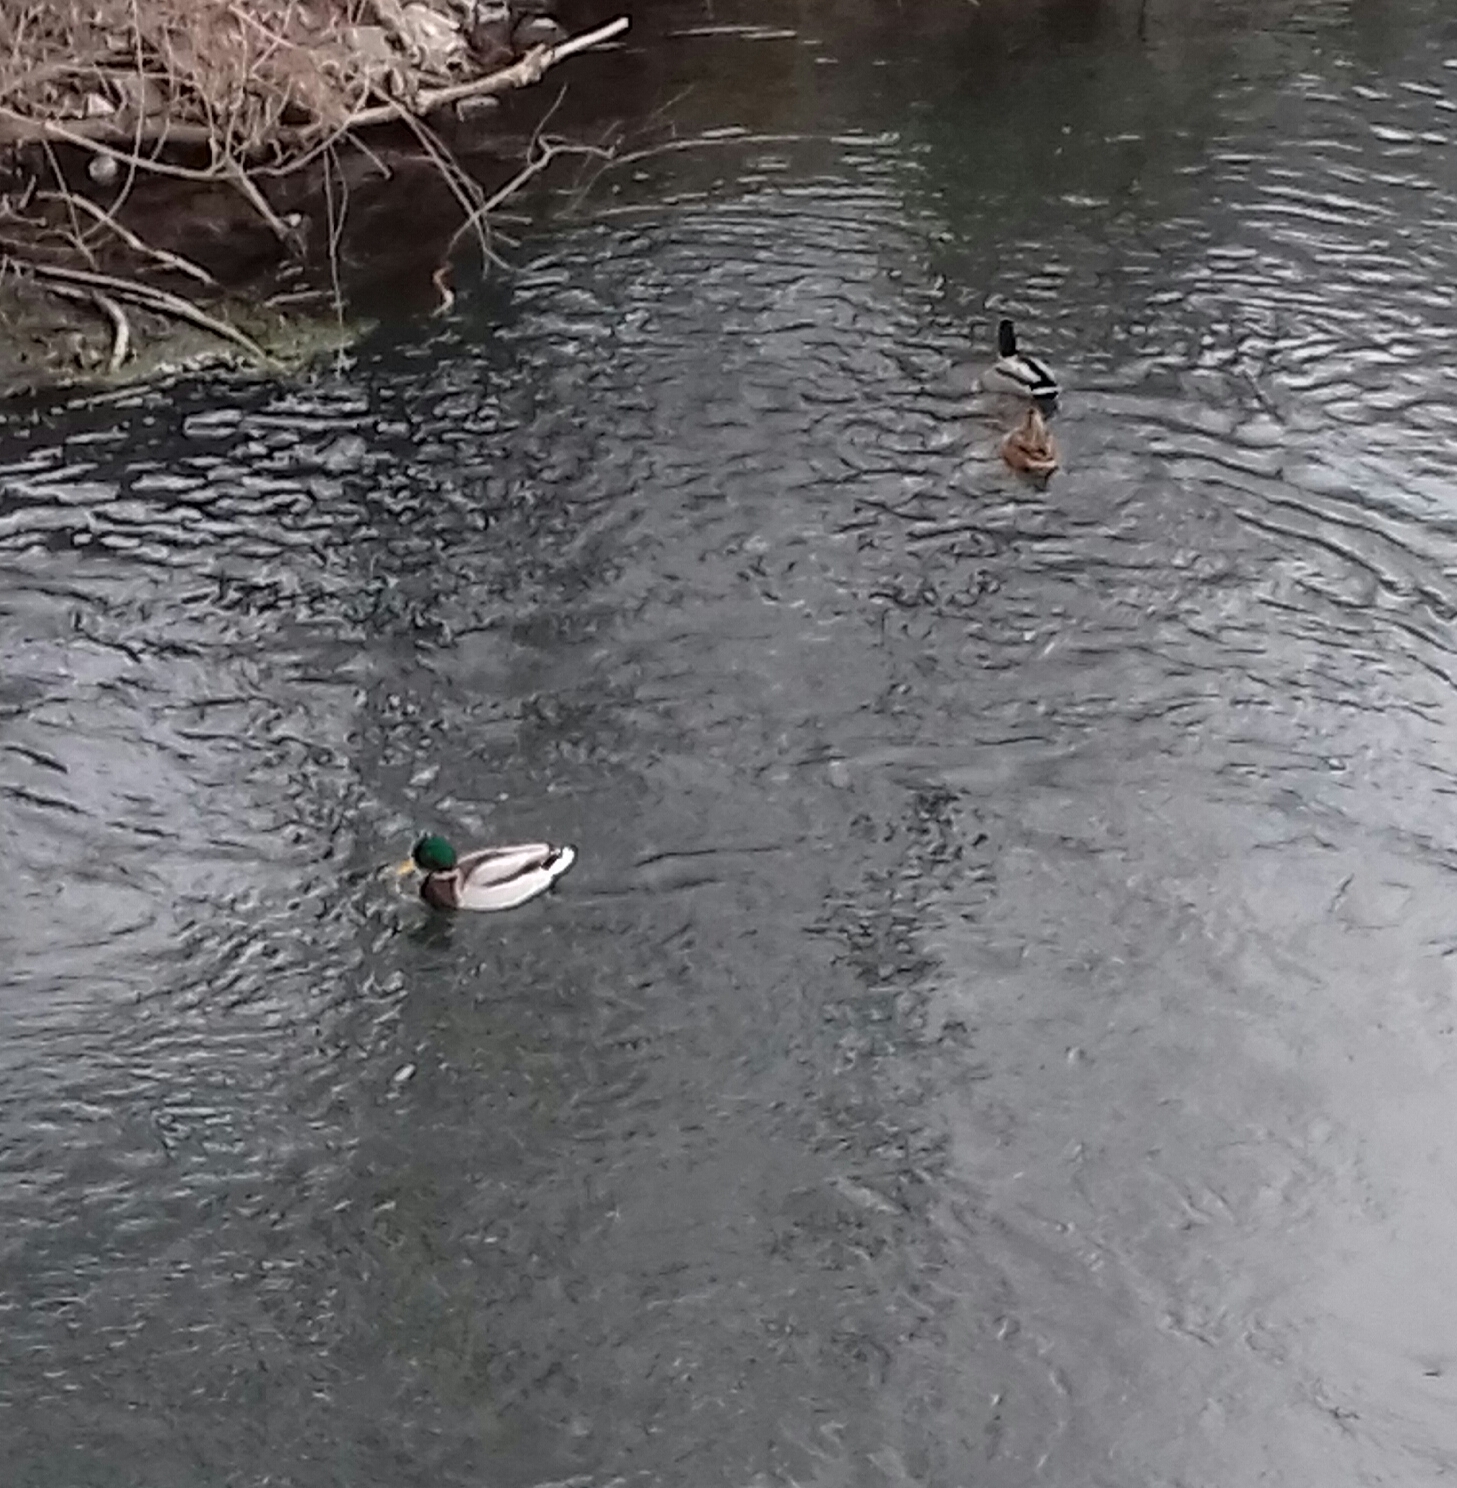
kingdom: Animalia
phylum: Chordata
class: Aves
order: Anseriformes
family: Anatidae
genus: Anas
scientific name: Anas platyrhynchos
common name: Mallard
